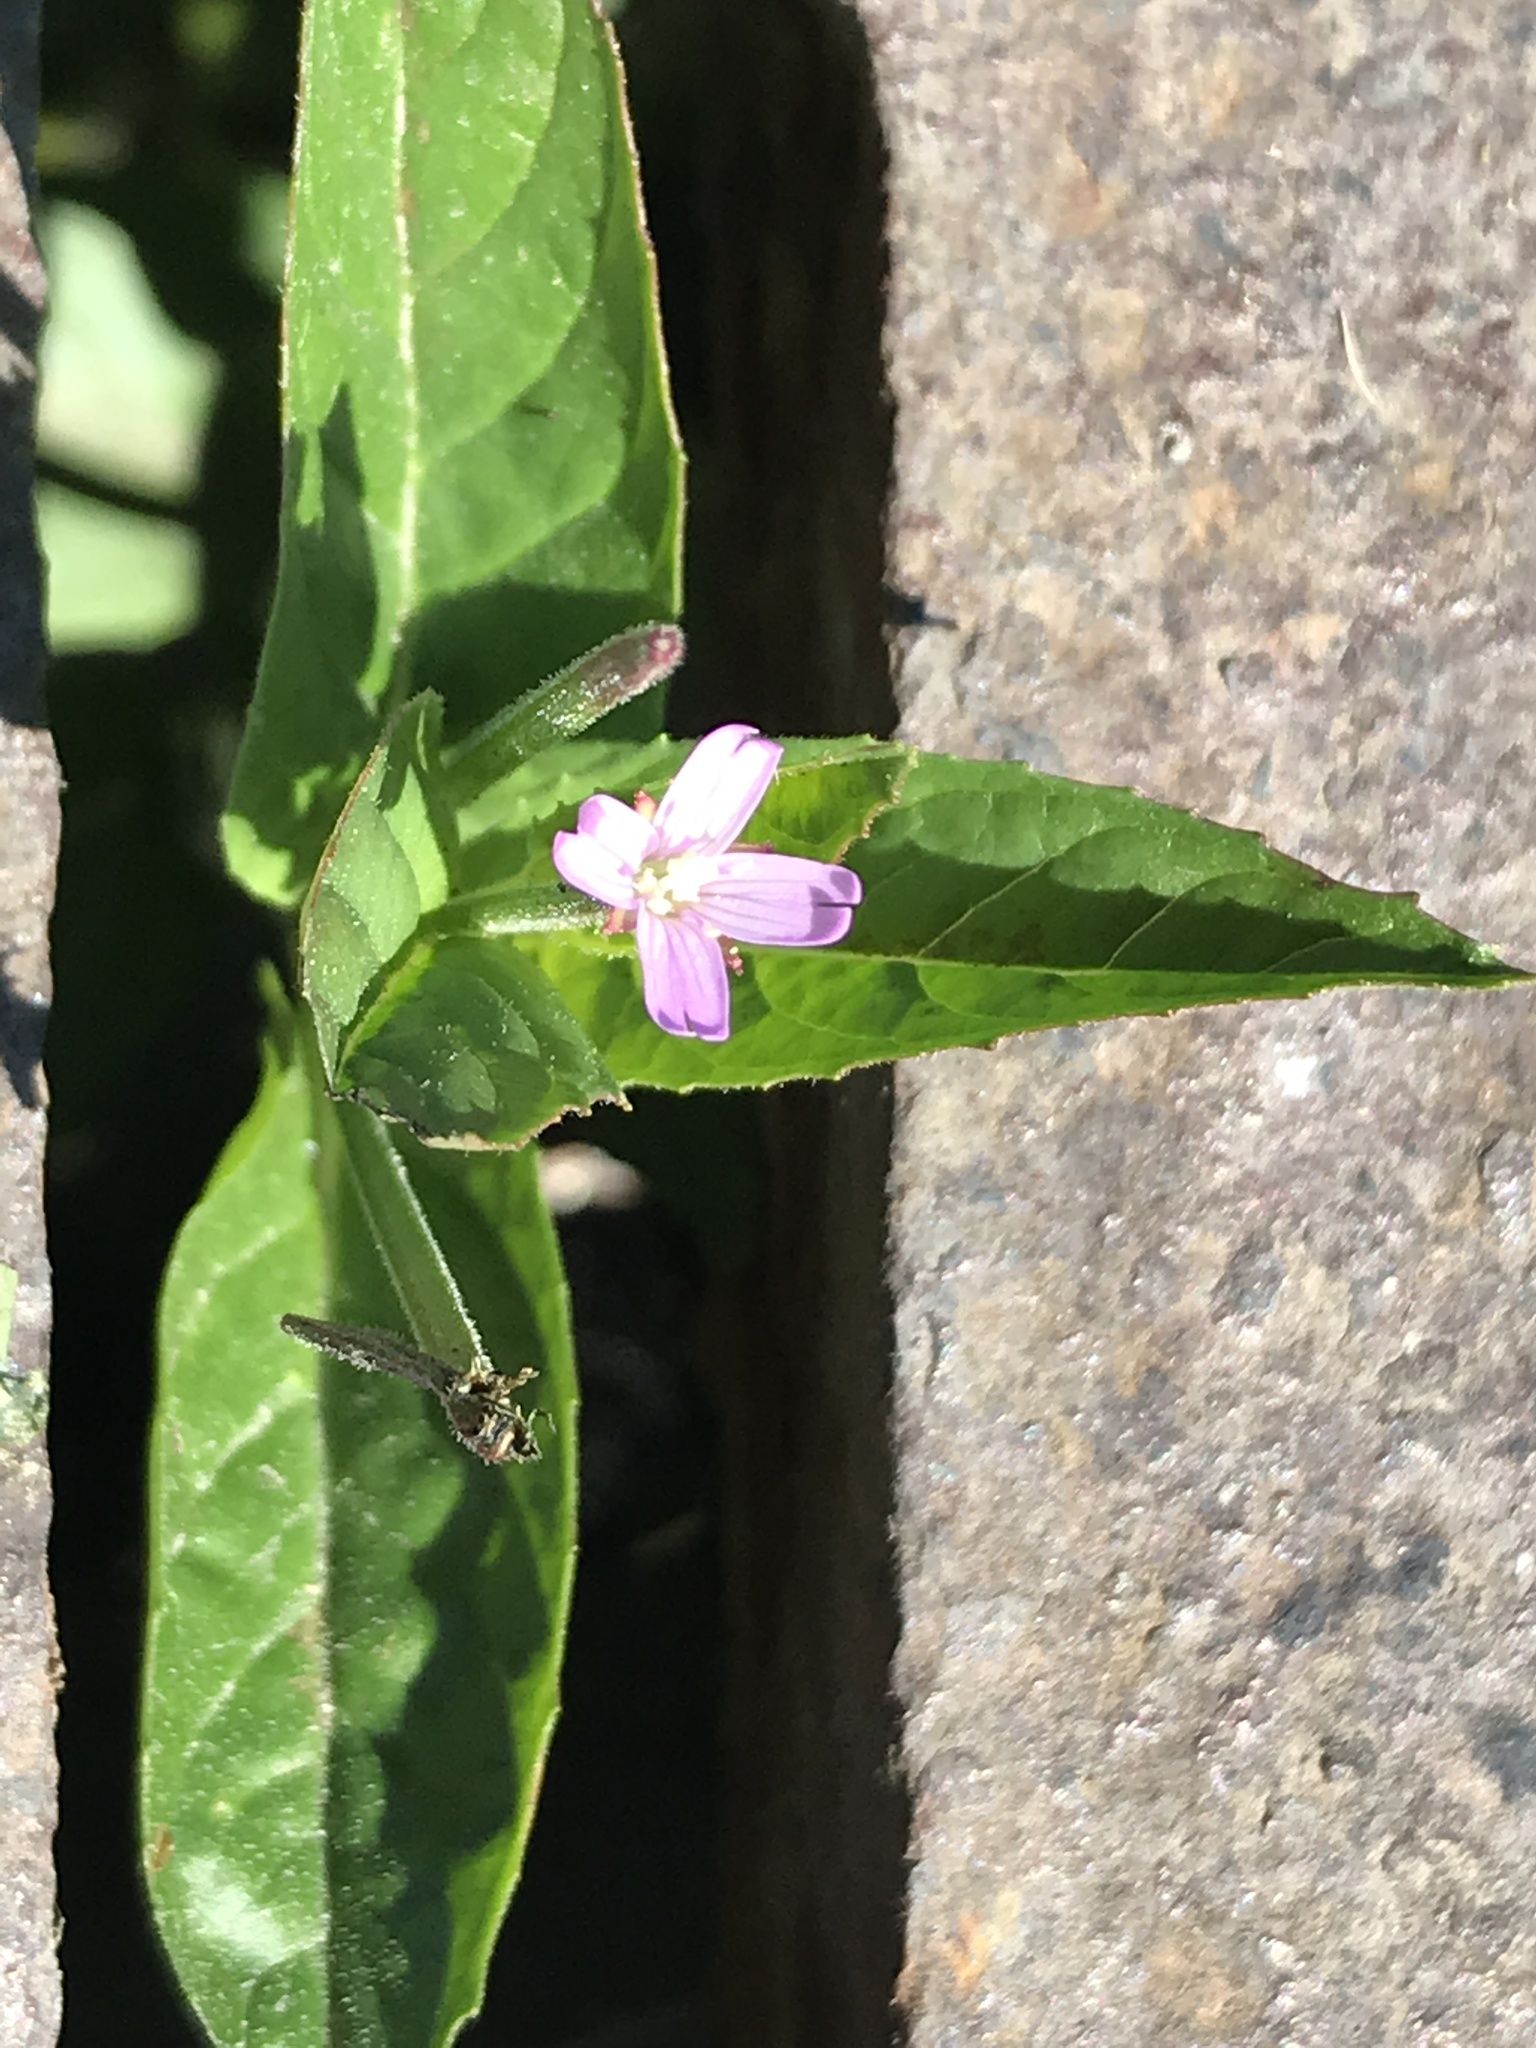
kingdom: Plantae
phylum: Tracheophyta
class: Magnoliopsida
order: Myrtales
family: Onagraceae
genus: Epilobium
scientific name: Epilobium ciliatum
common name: American willowherb
